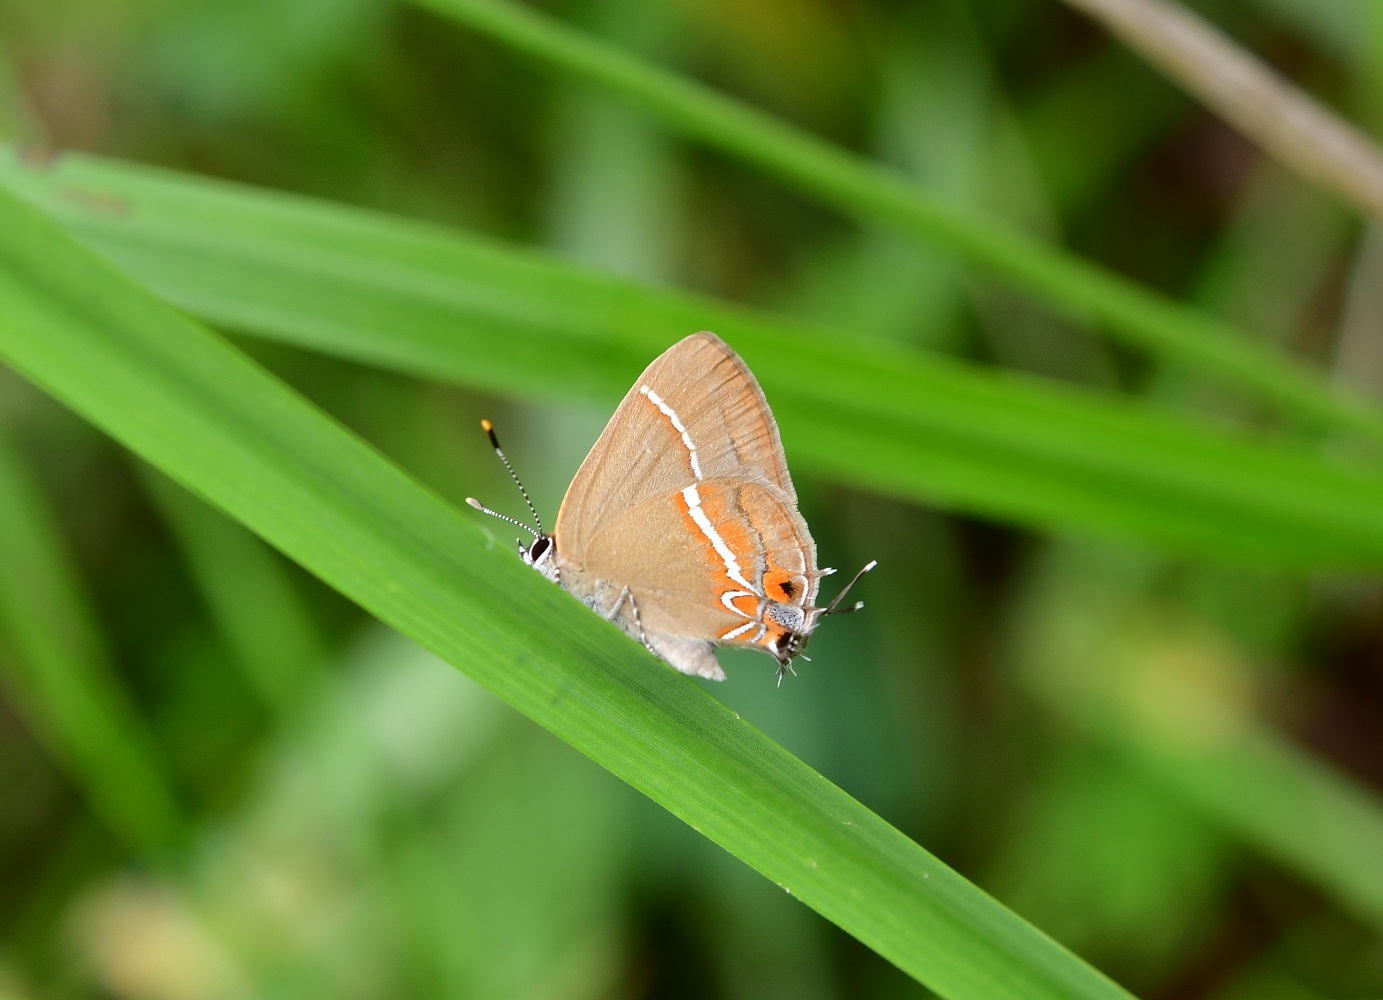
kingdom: Animalia
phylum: Arthropoda
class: Insecta
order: Lepidoptera
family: Lycaenidae
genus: Calycopis
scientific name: Calycopis clarina
